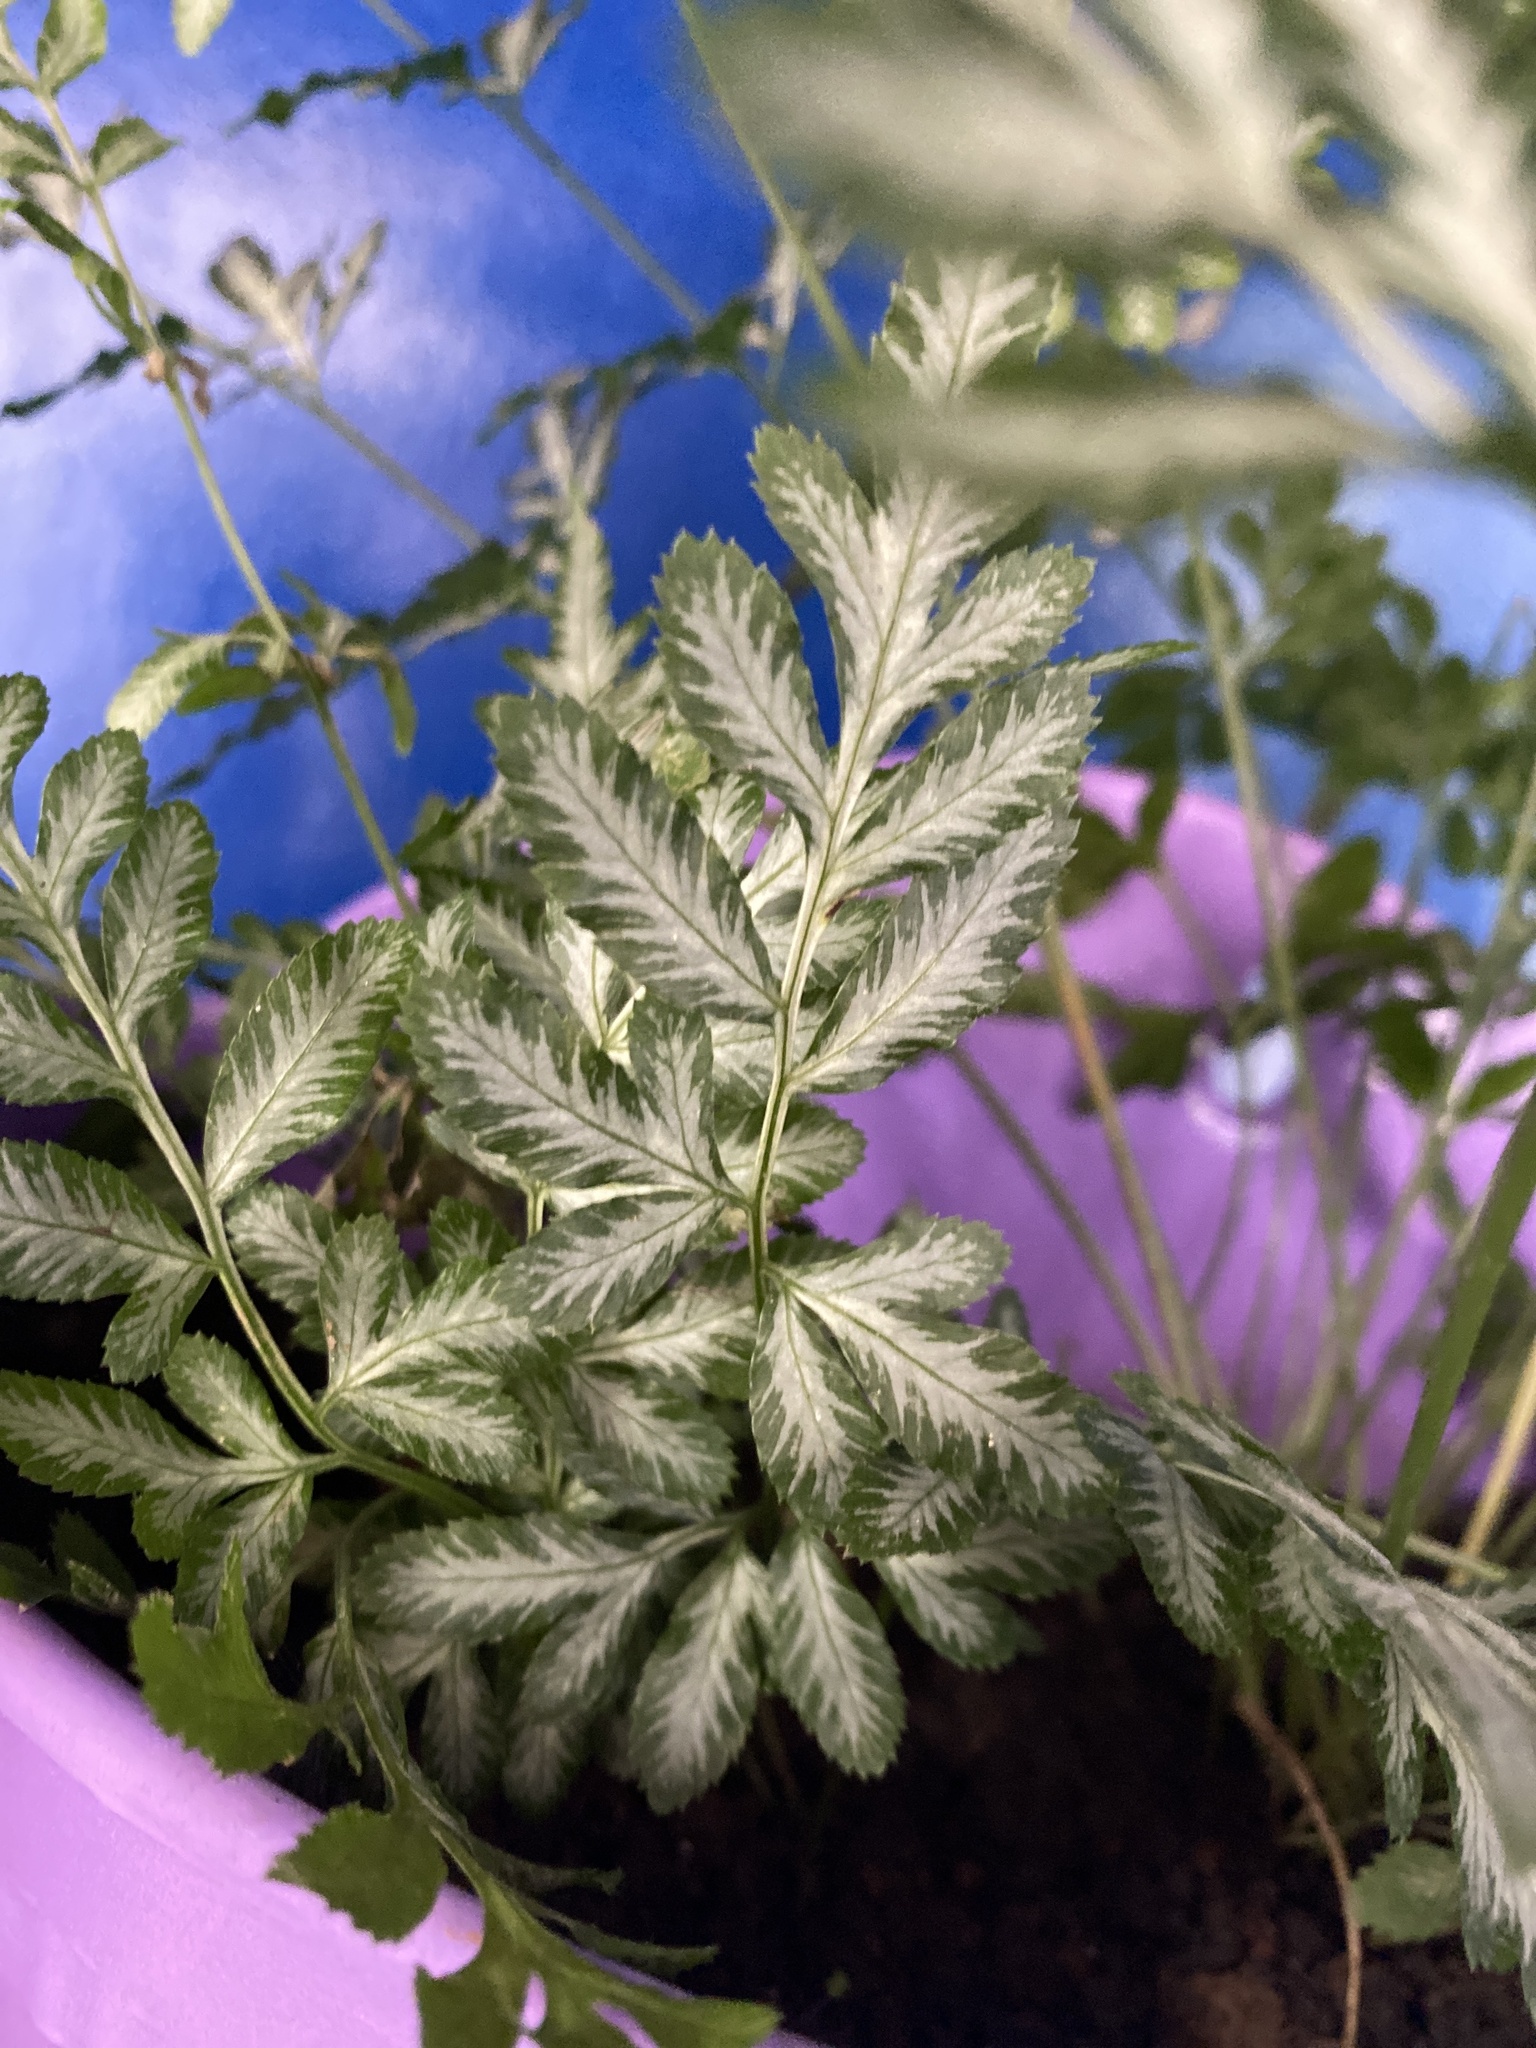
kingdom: Plantae
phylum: Tracheophyta
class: Polypodiopsida
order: Polypodiales
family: Pteridaceae
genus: Pteris
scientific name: Pteris ensiformis
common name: Sword brake
